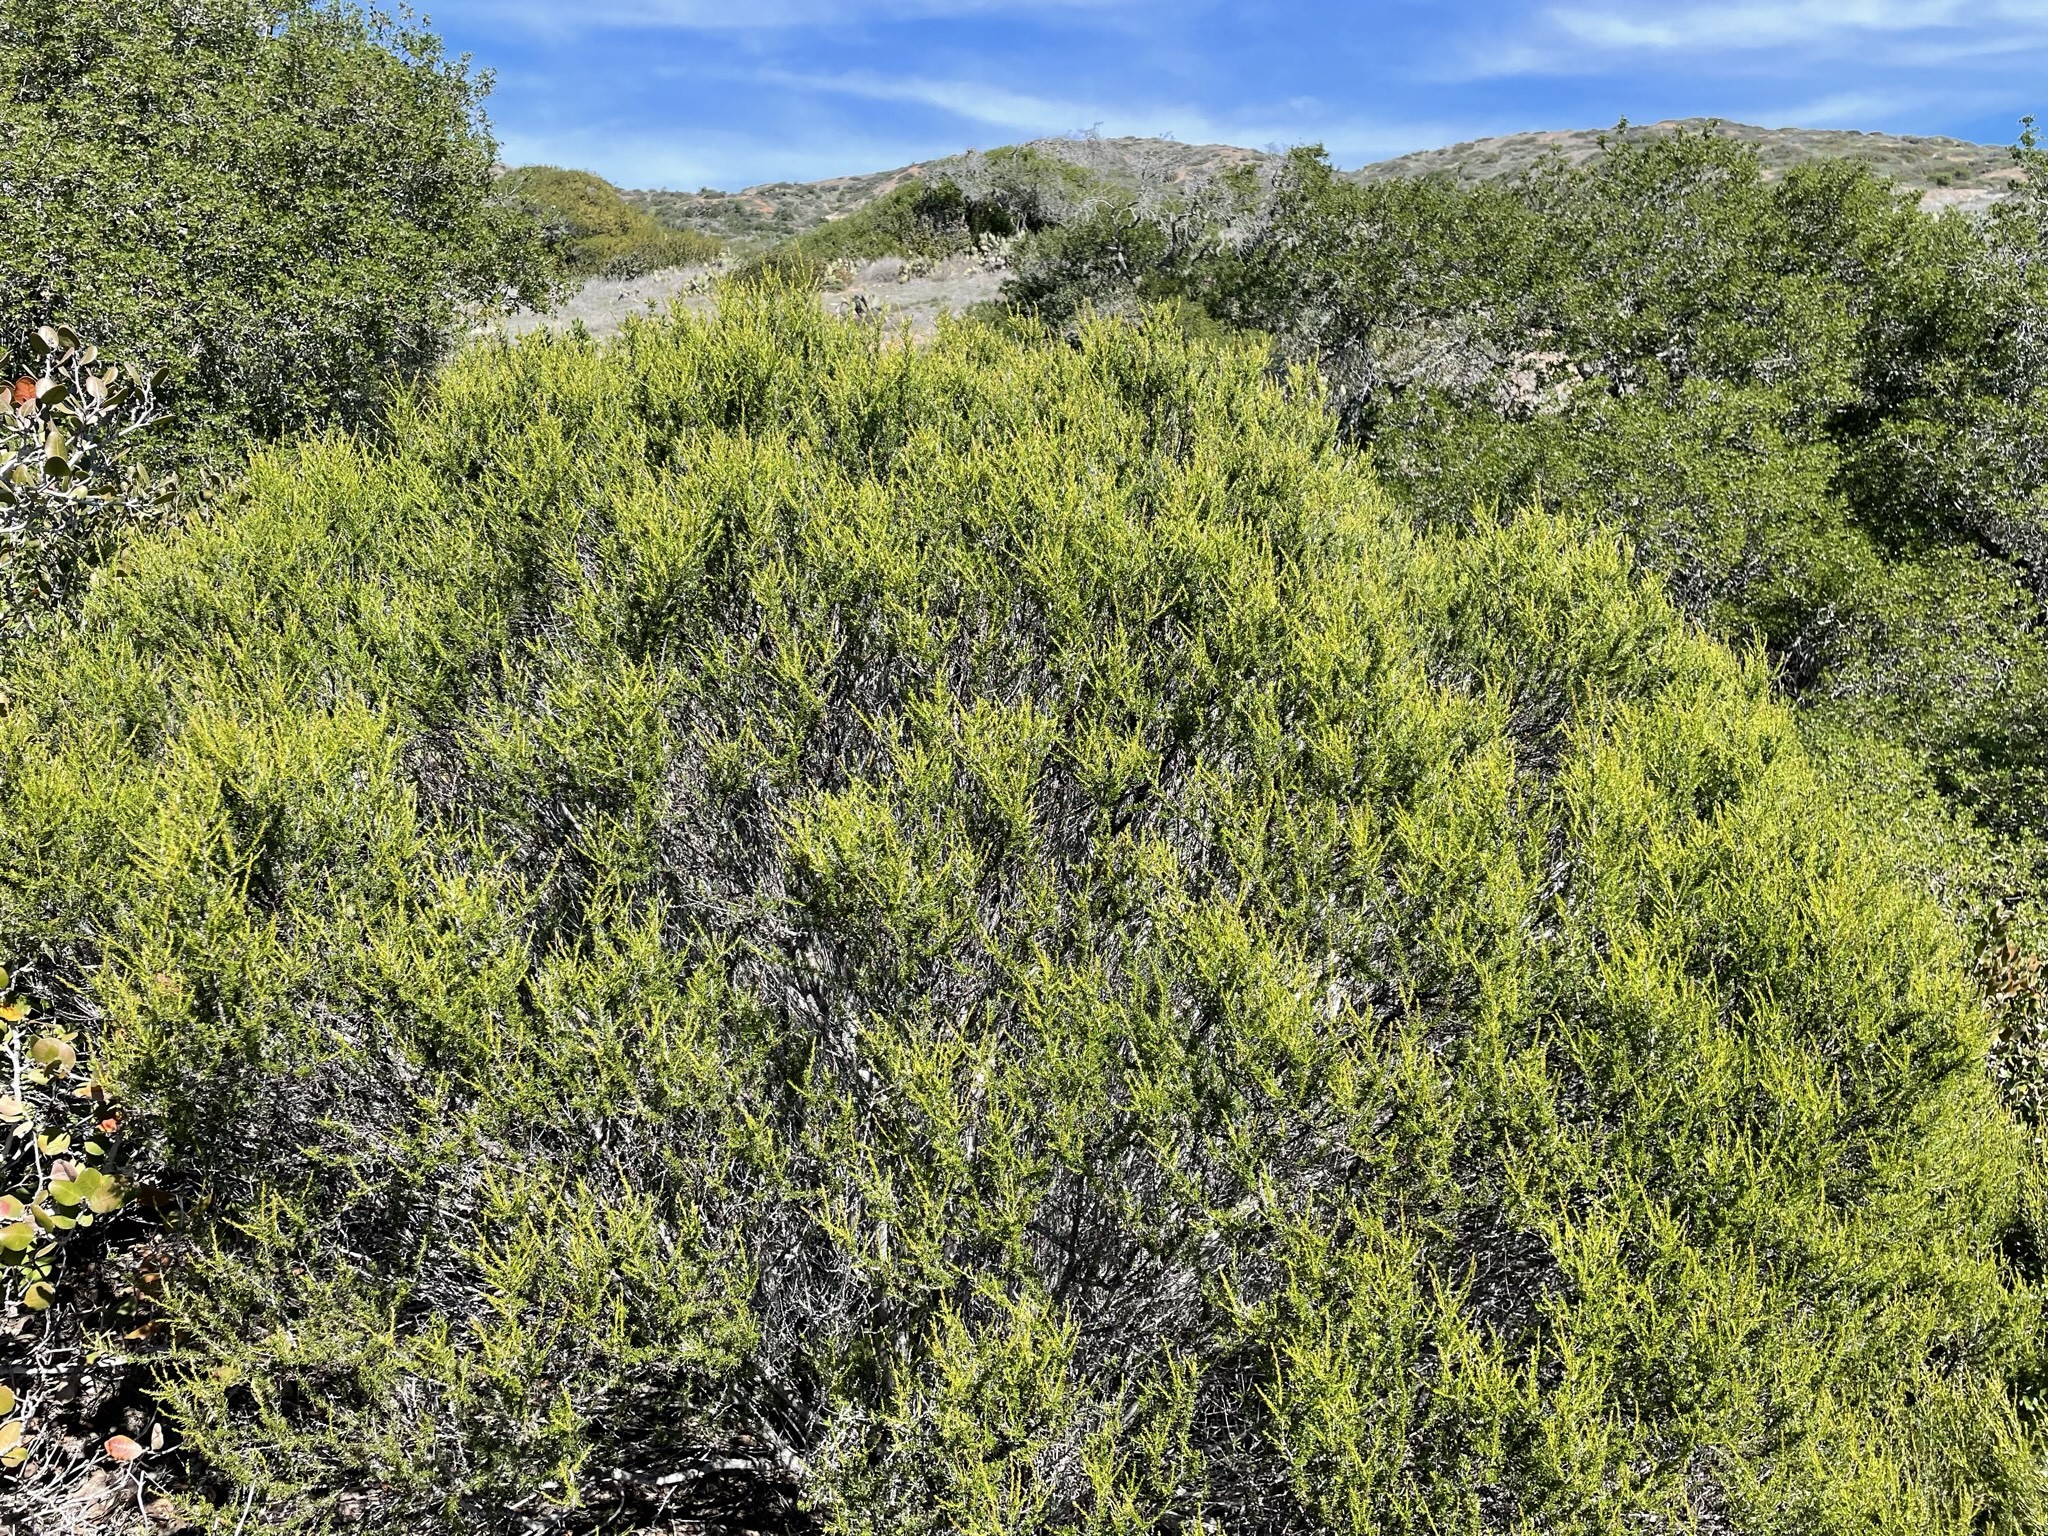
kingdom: Plantae
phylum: Tracheophyta
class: Magnoliopsida
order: Rosales
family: Rosaceae
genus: Adenostoma
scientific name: Adenostoma fasciculatum
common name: Chamise
